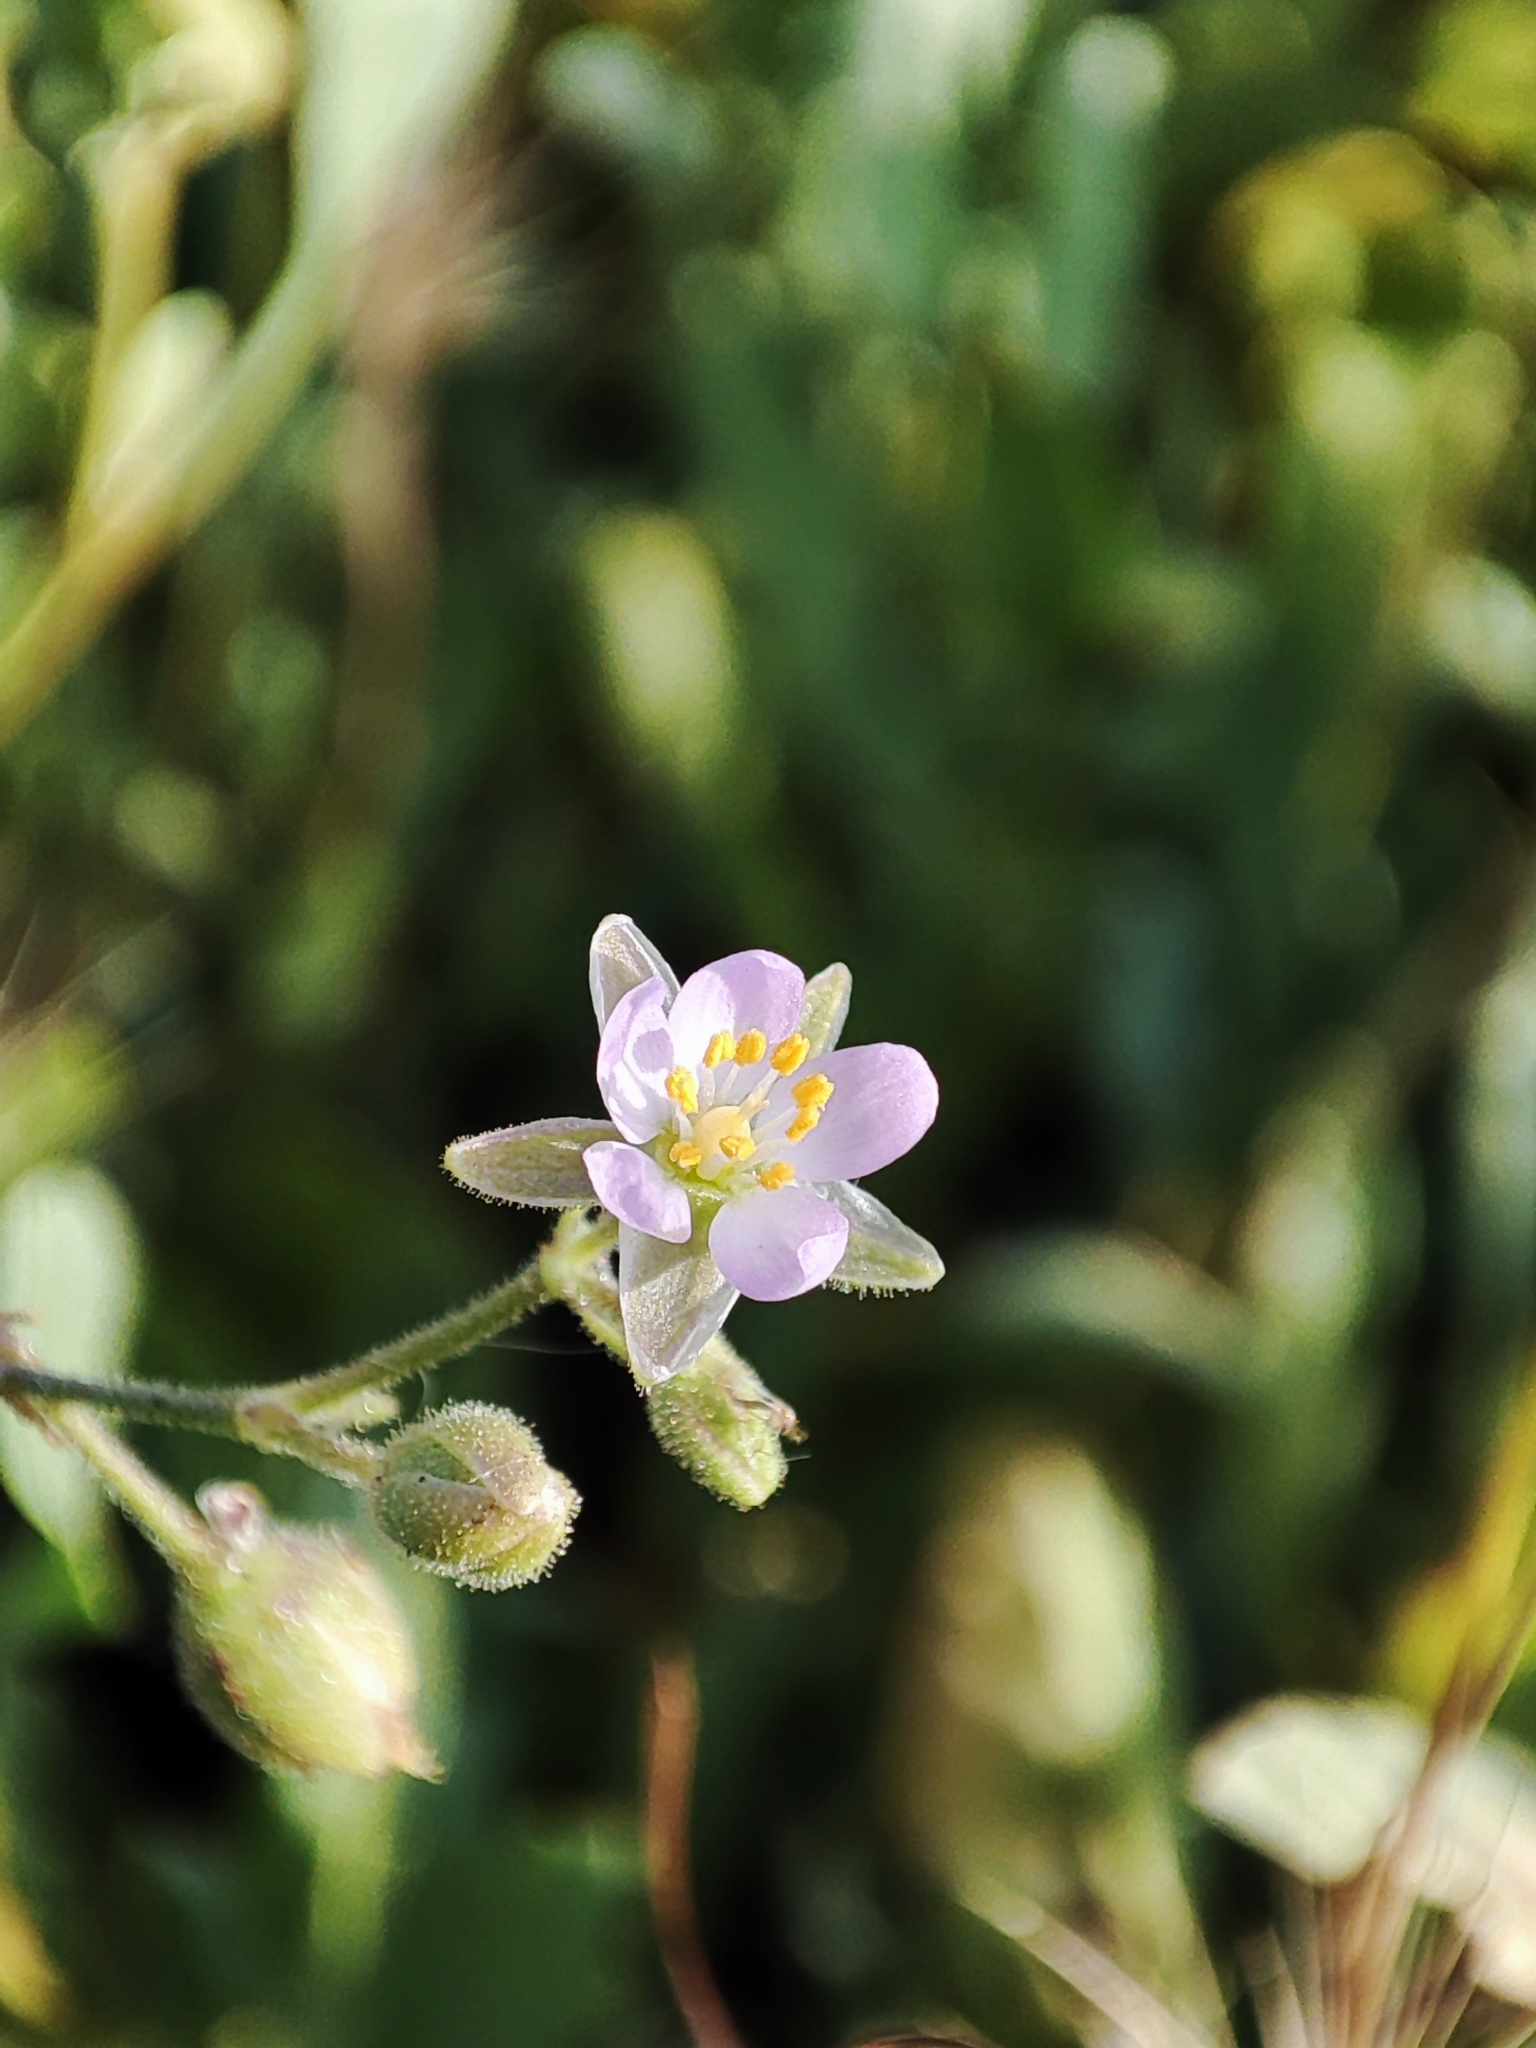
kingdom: Plantae
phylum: Tracheophyta
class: Magnoliopsida
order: Caryophyllales
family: Caryophyllaceae
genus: Spergularia
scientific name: Spergularia media
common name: Greater sea-spurrey
